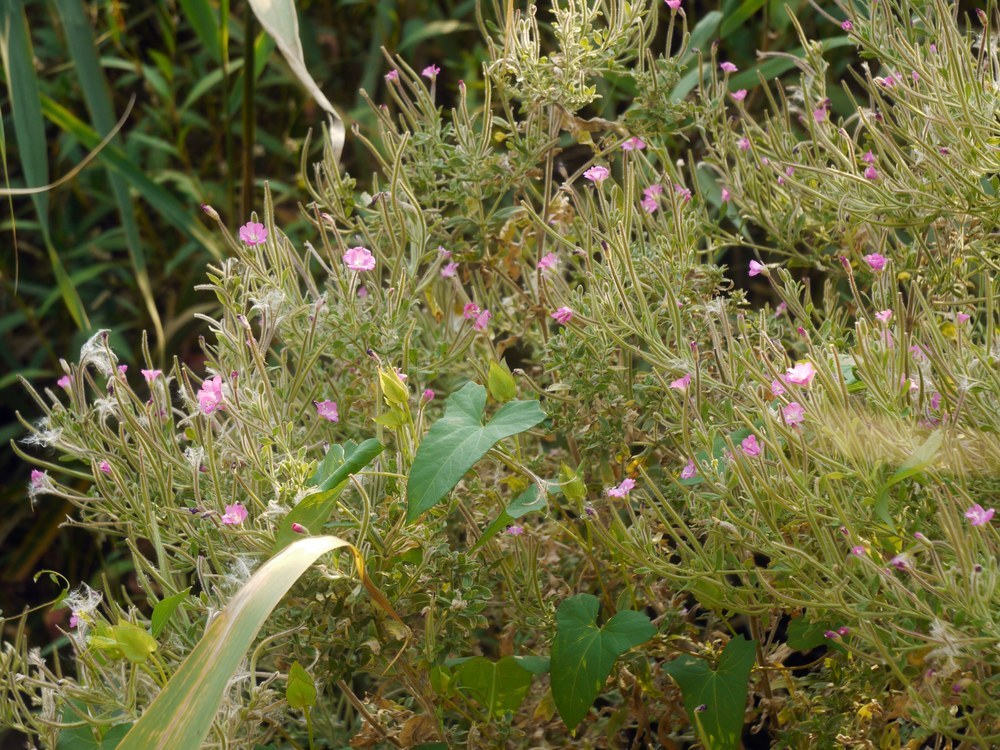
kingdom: Plantae
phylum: Tracheophyta
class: Magnoliopsida
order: Myrtales
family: Onagraceae
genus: Epilobium
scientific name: Epilobium hirsutum
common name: Great willowherb
